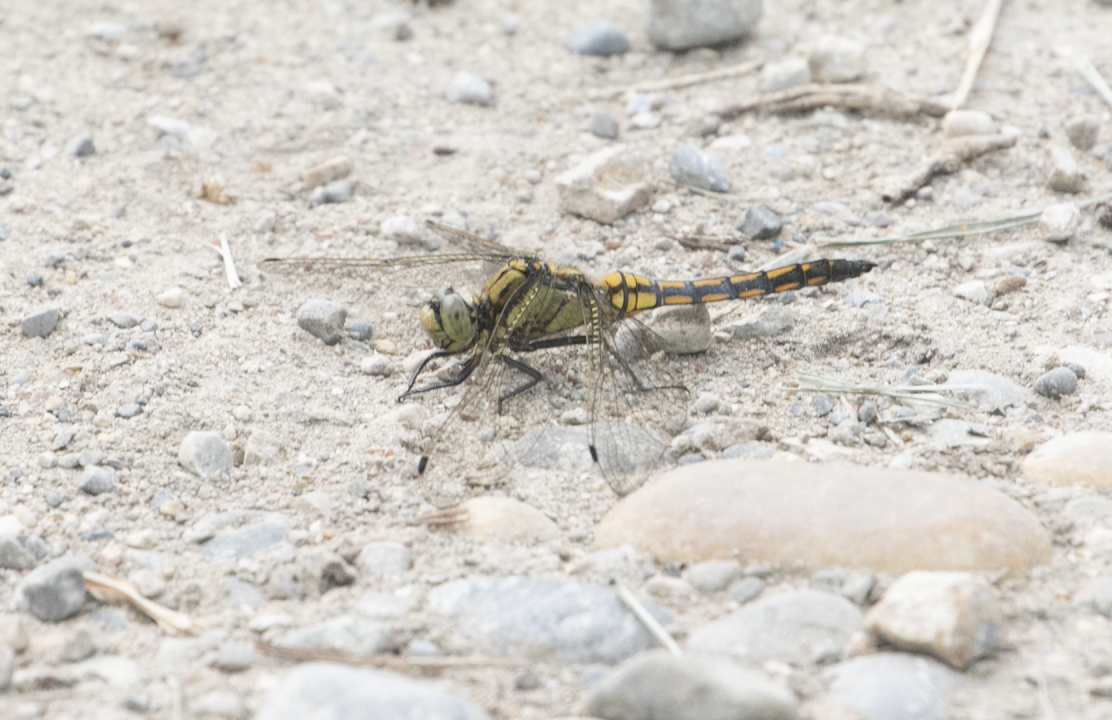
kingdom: Animalia
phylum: Arthropoda
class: Insecta
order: Odonata
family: Libellulidae
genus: Orthetrum
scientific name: Orthetrum cancellatum
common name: Black-tailed skimmer
